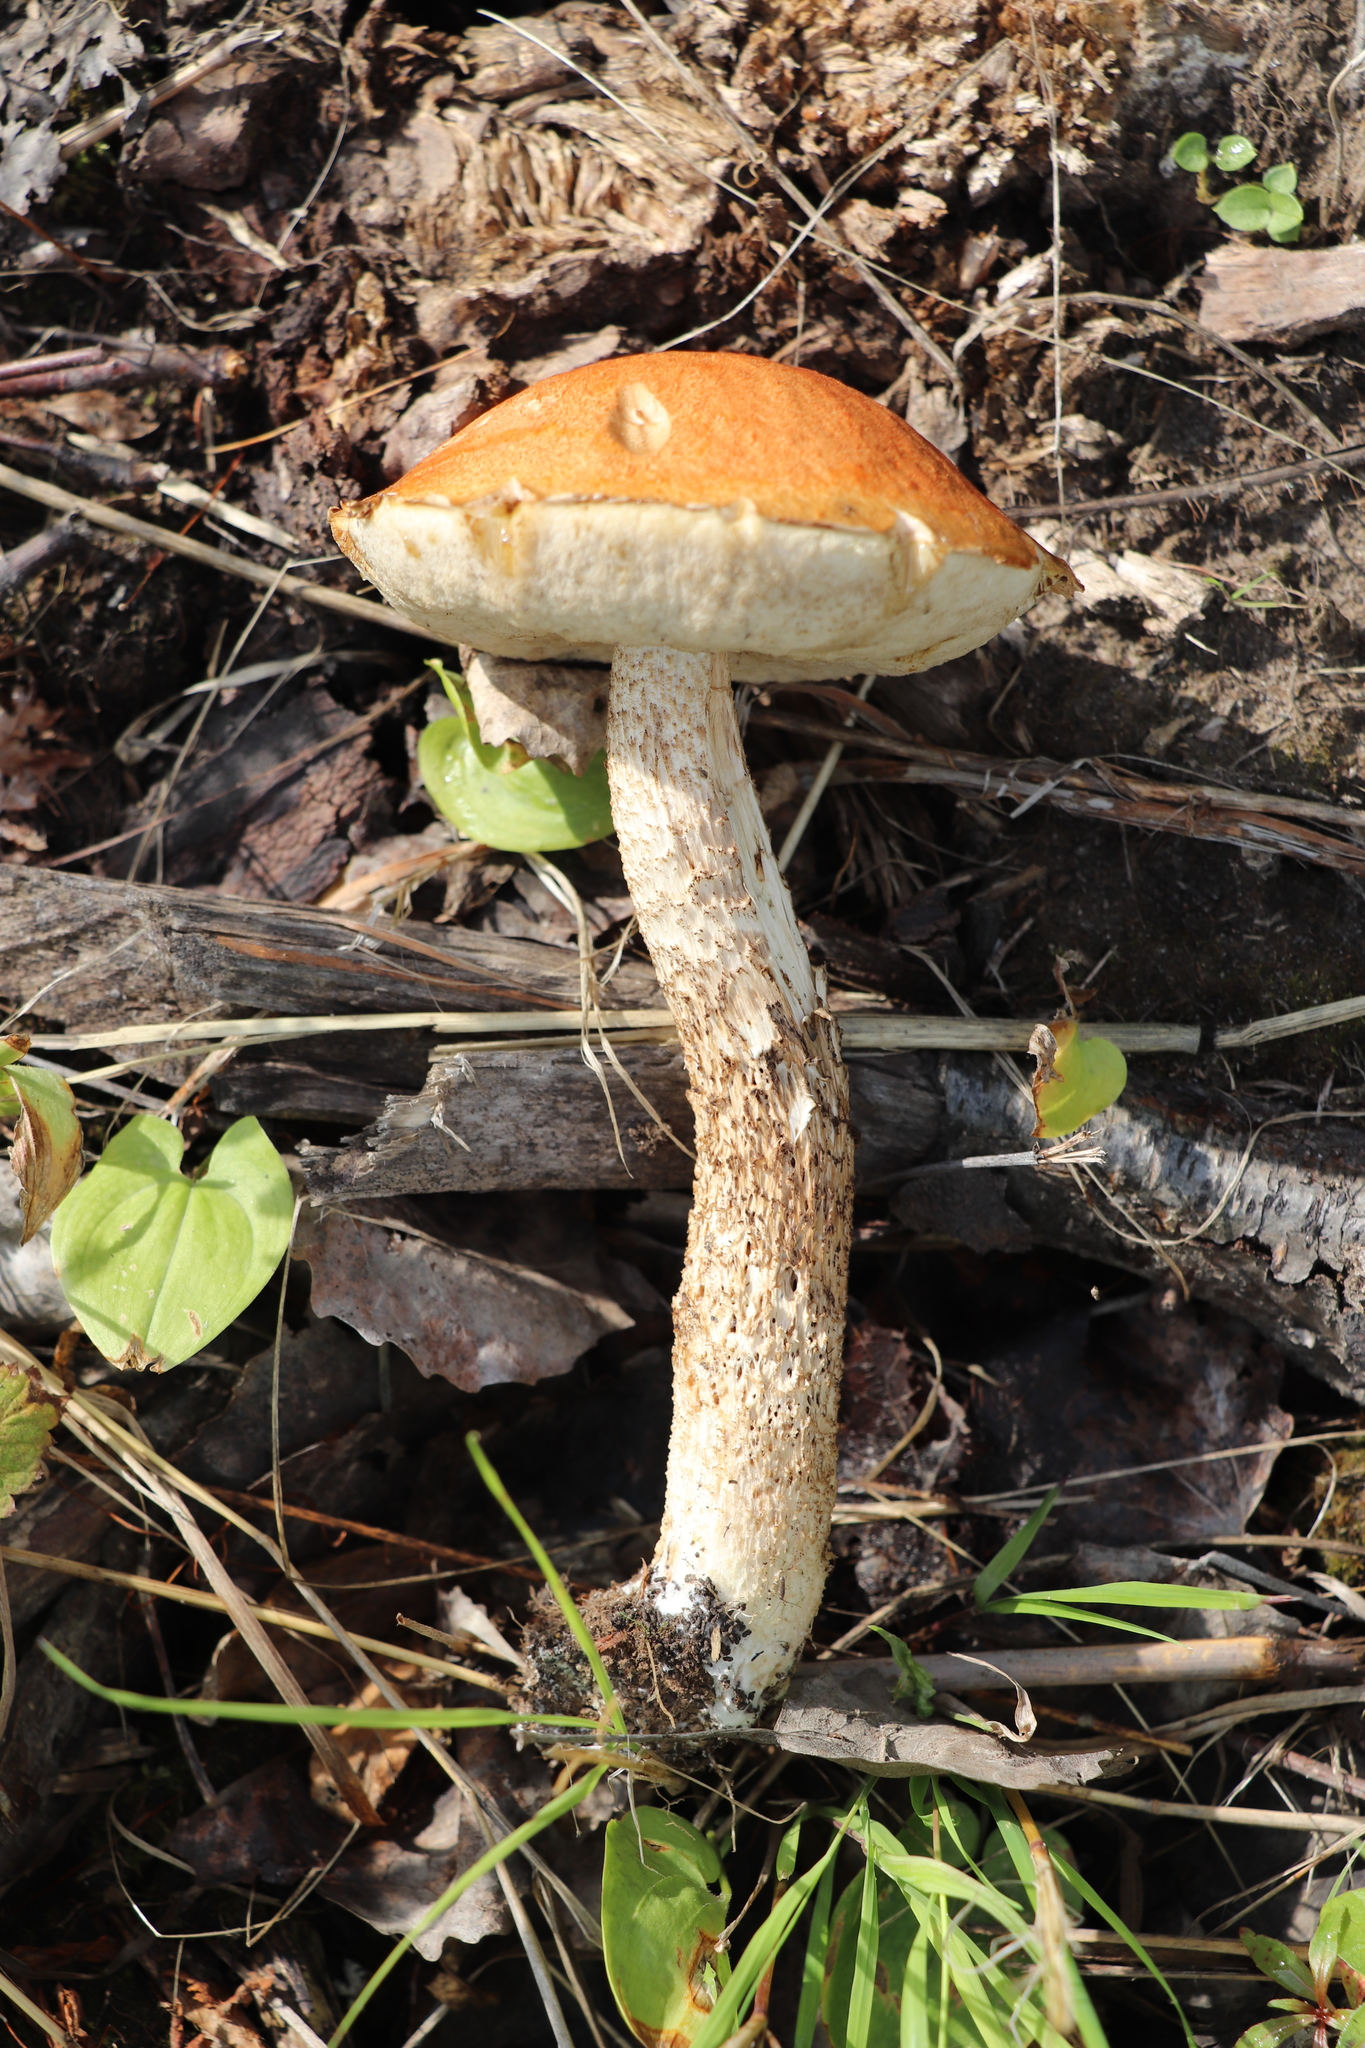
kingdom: Fungi
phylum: Basidiomycota
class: Agaricomycetes
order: Boletales
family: Boletaceae
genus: Leccinum
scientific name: Leccinum albostipitatum
